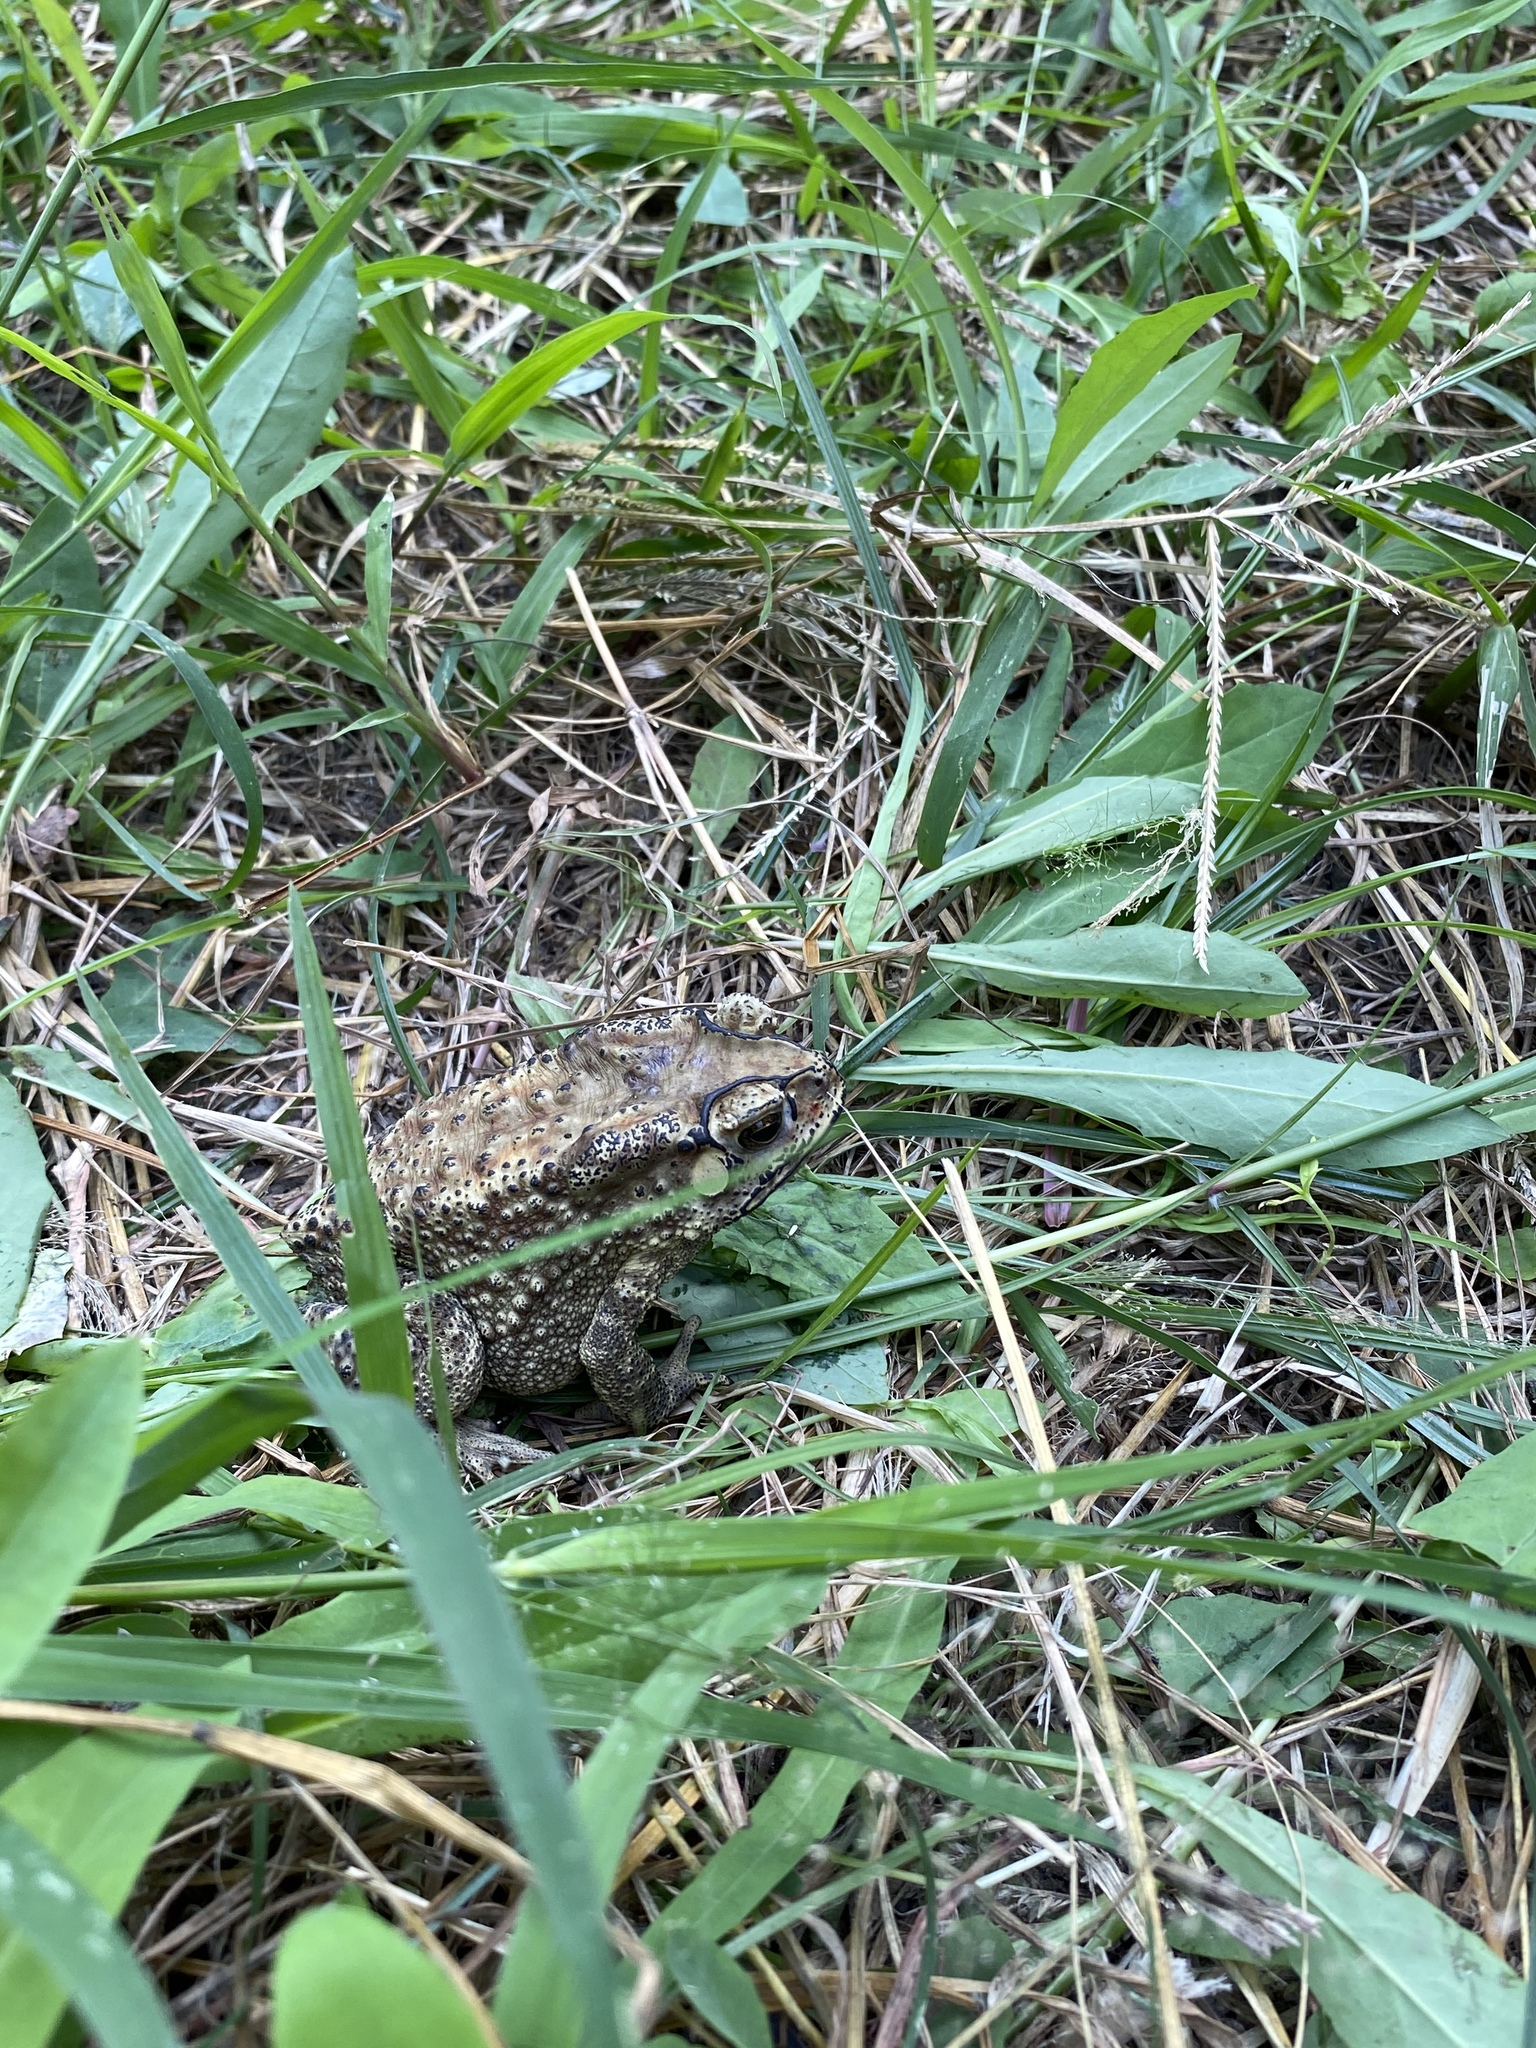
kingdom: Animalia
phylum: Chordata
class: Amphibia
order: Anura
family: Bufonidae
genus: Duttaphrynus
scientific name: Duttaphrynus melanostictus
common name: Common sunda toad
